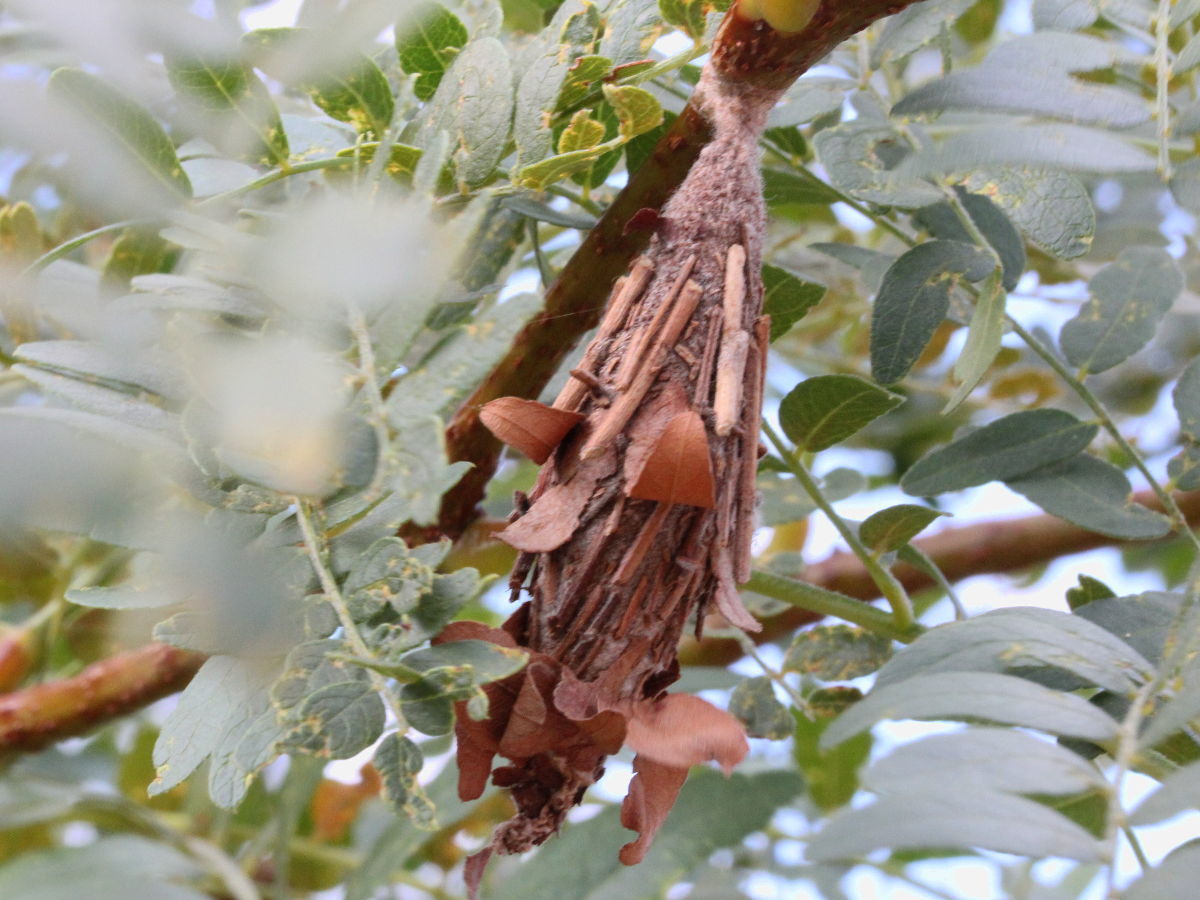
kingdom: Animalia
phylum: Arthropoda
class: Insecta
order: Lepidoptera
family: Psychidae
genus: Thyridopteryx
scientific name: Thyridopteryx ephemeraeformis
